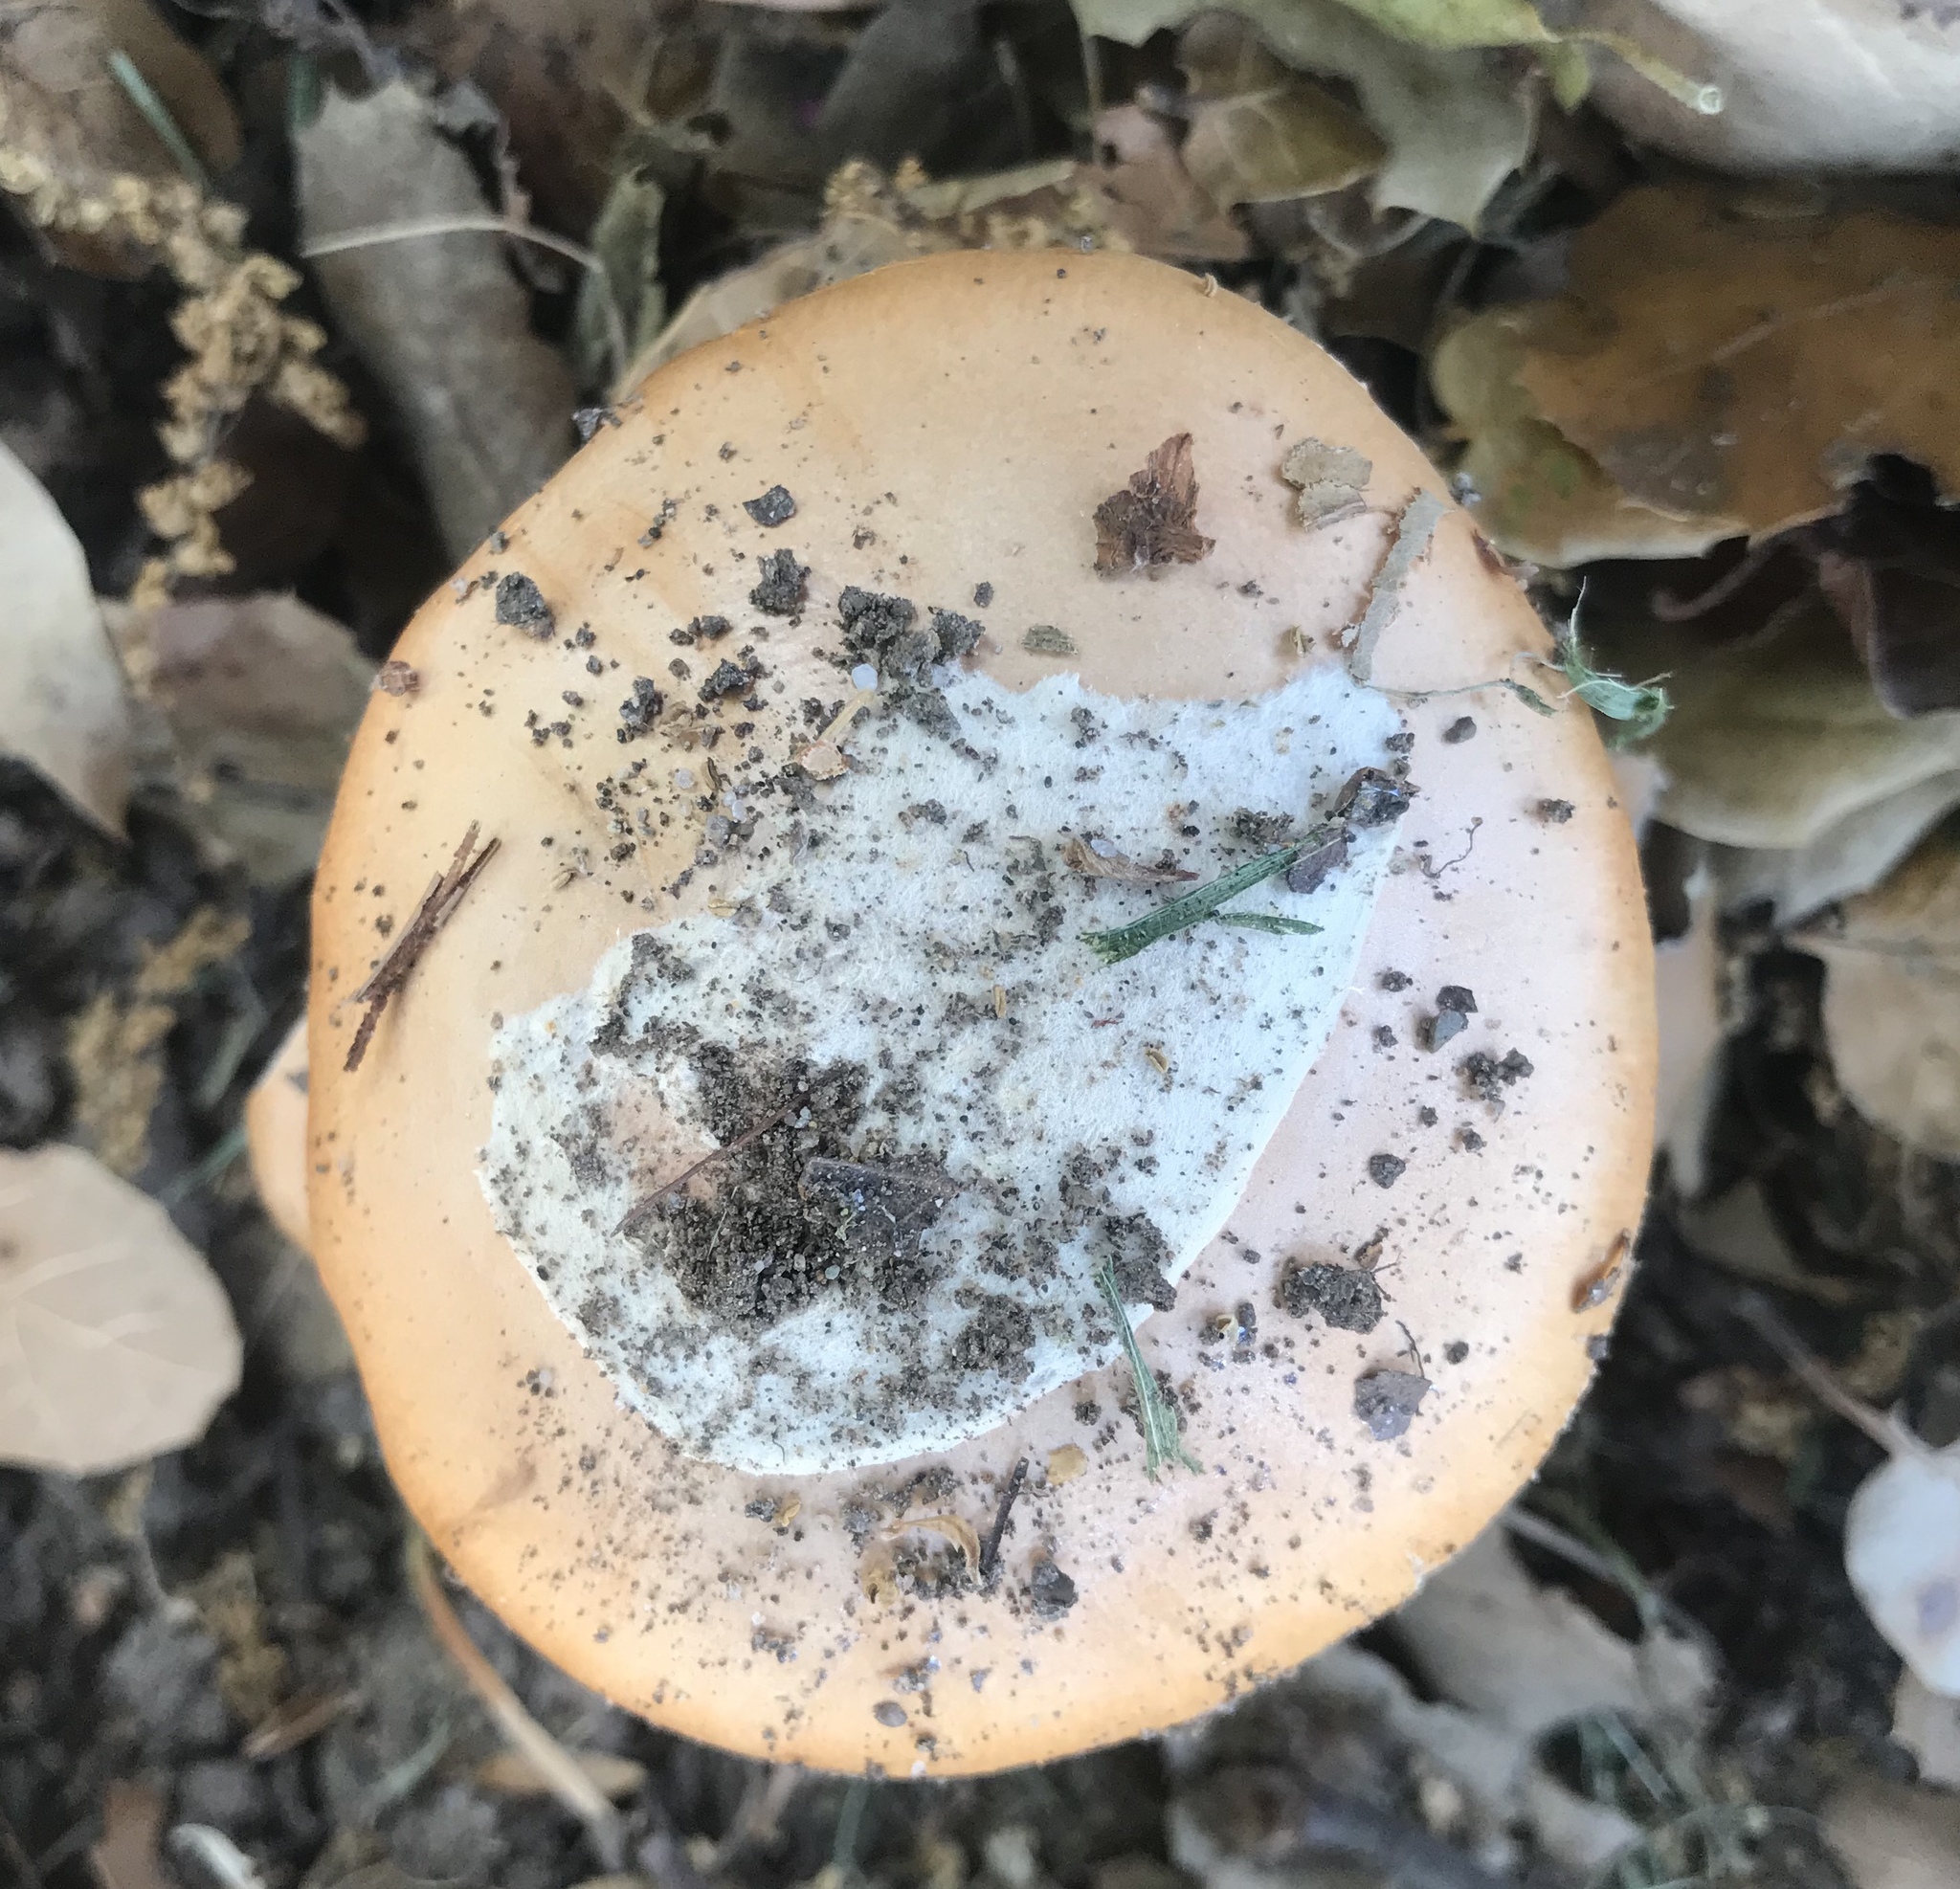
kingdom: Fungi
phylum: Basidiomycota
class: Agaricomycetes
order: Agaricales
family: Amanitaceae
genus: Amanita
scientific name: Amanita velosa
